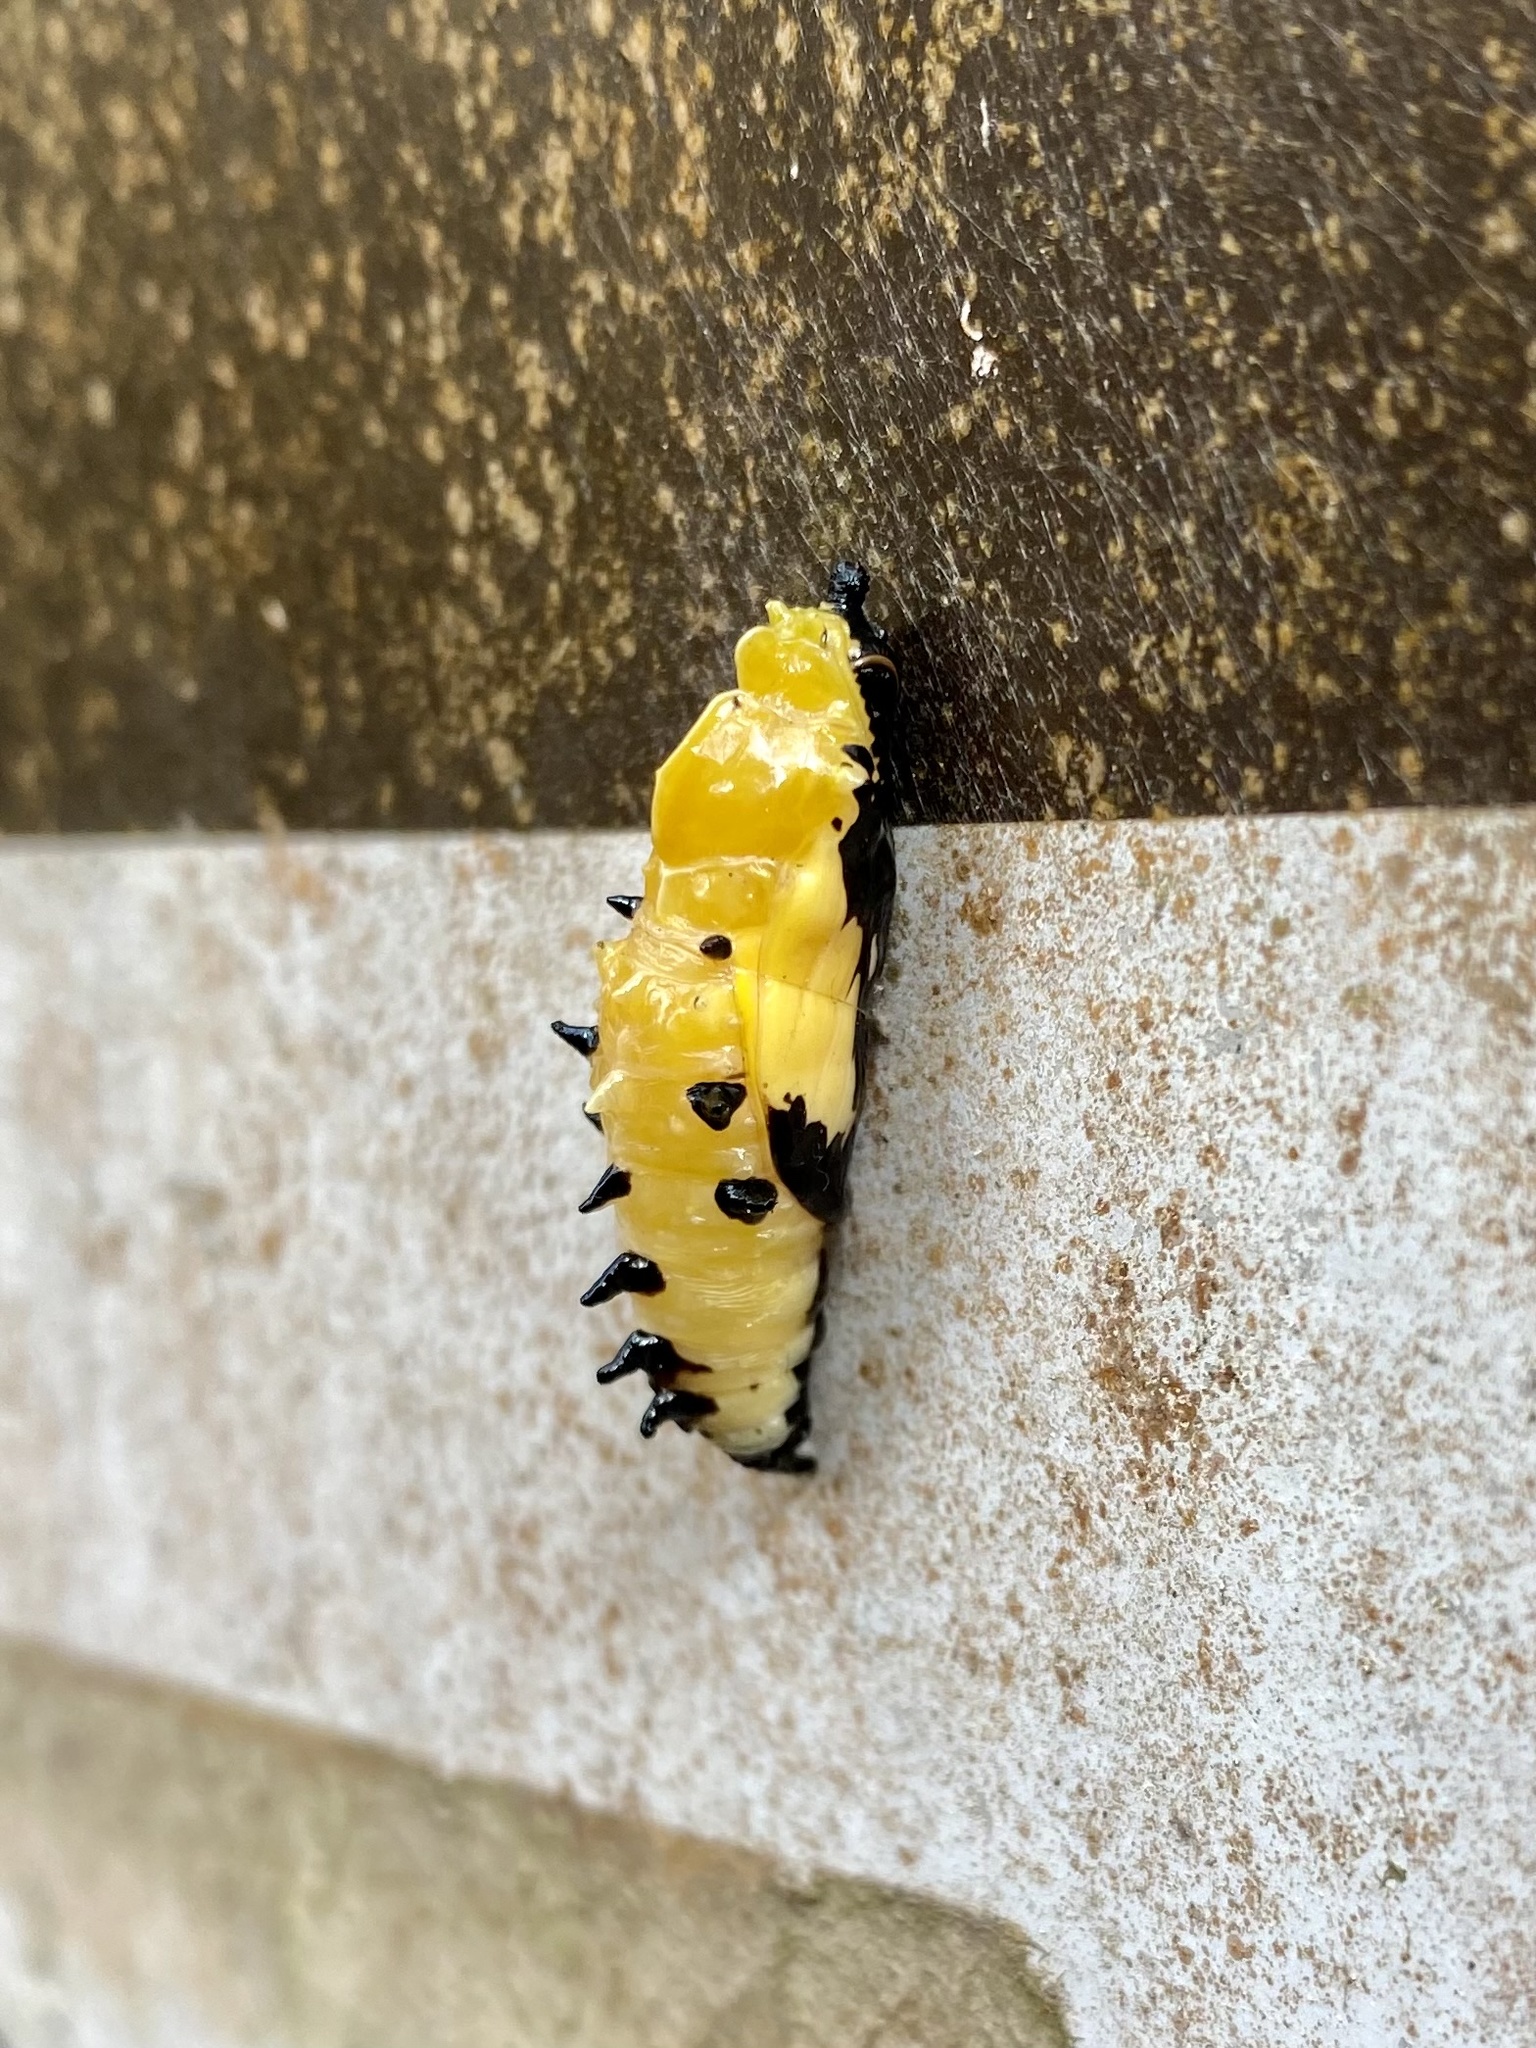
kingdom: Animalia
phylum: Arthropoda
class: Insecta
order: Lepidoptera
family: Pieridae
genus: Delias
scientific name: Delias hyparete
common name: Painted jezebel
